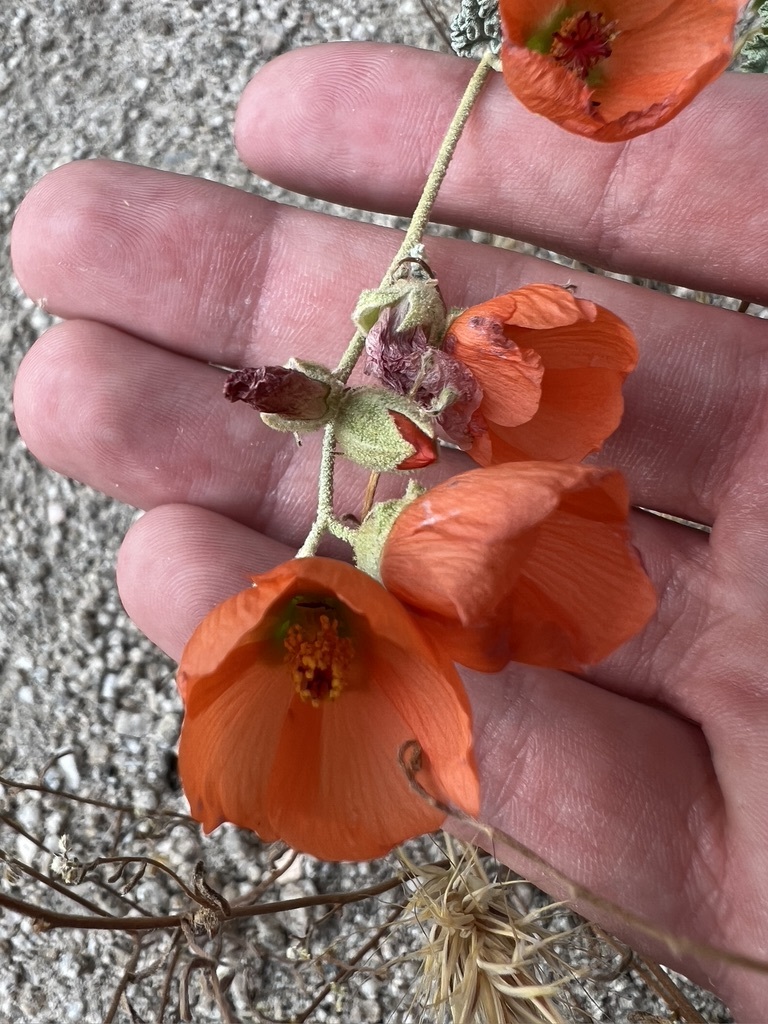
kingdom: Plantae
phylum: Tracheophyta
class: Magnoliopsida
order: Malvales
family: Malvaceae
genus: Sphaeralcea
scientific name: Sphaeralcea ambigua
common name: Apricot globe-mallow
